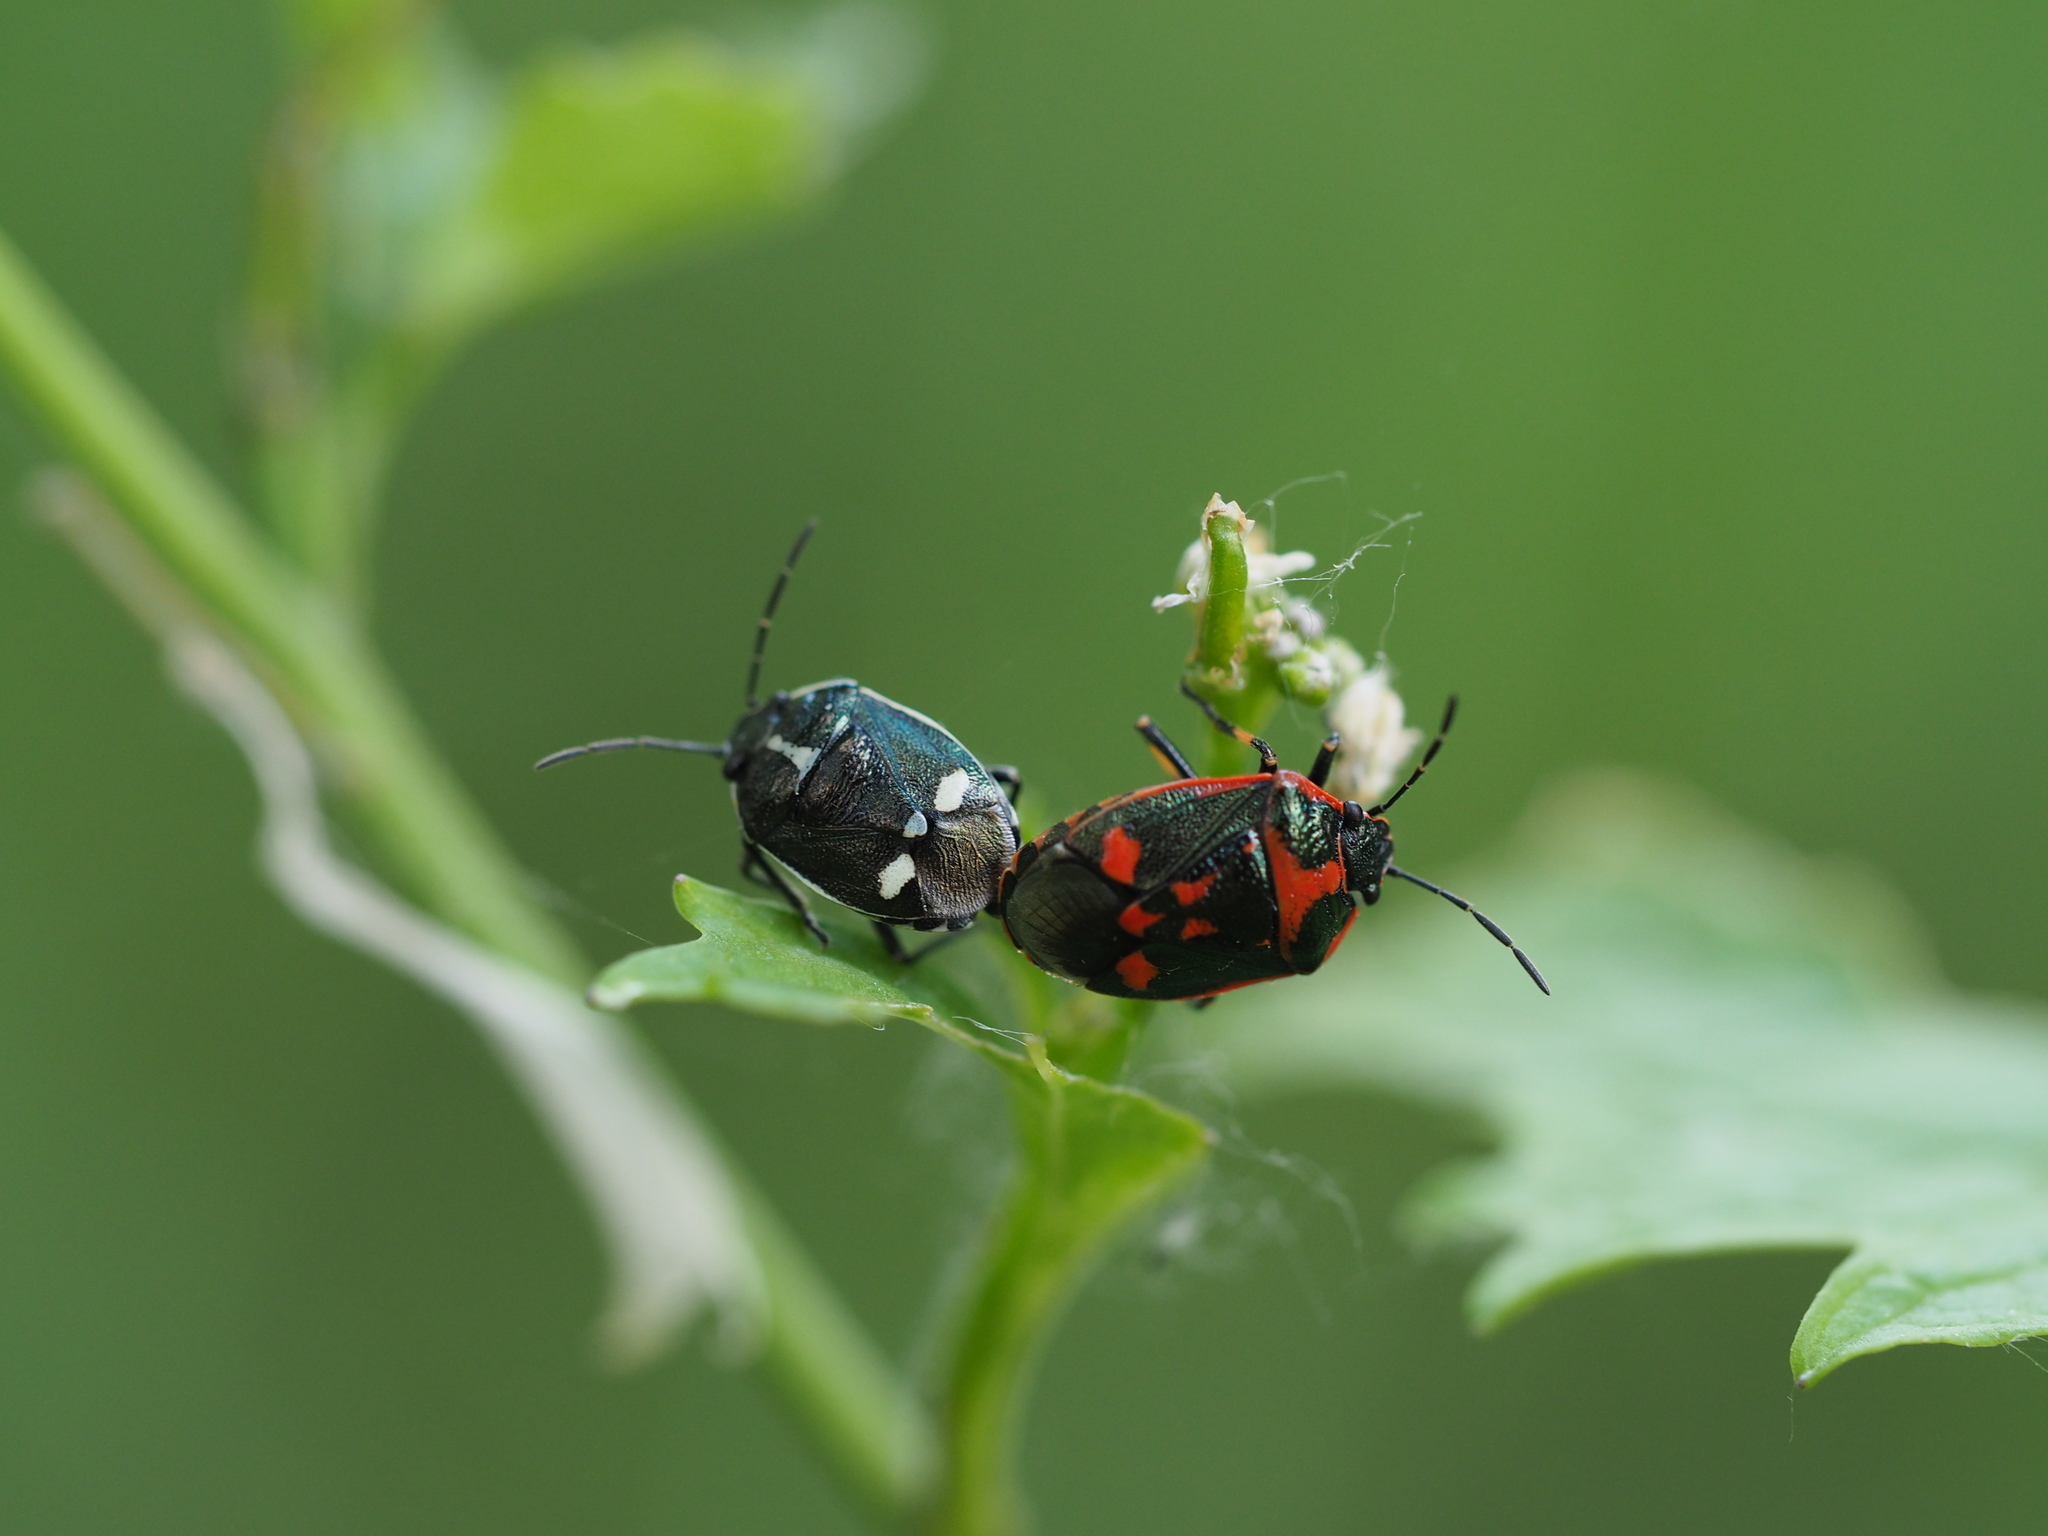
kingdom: Animalia
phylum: Arthropoda
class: Insecta
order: Hemiptera
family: Pentatomidae
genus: Eurydema
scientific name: Eurydema oleracea
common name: Cabbage bug
